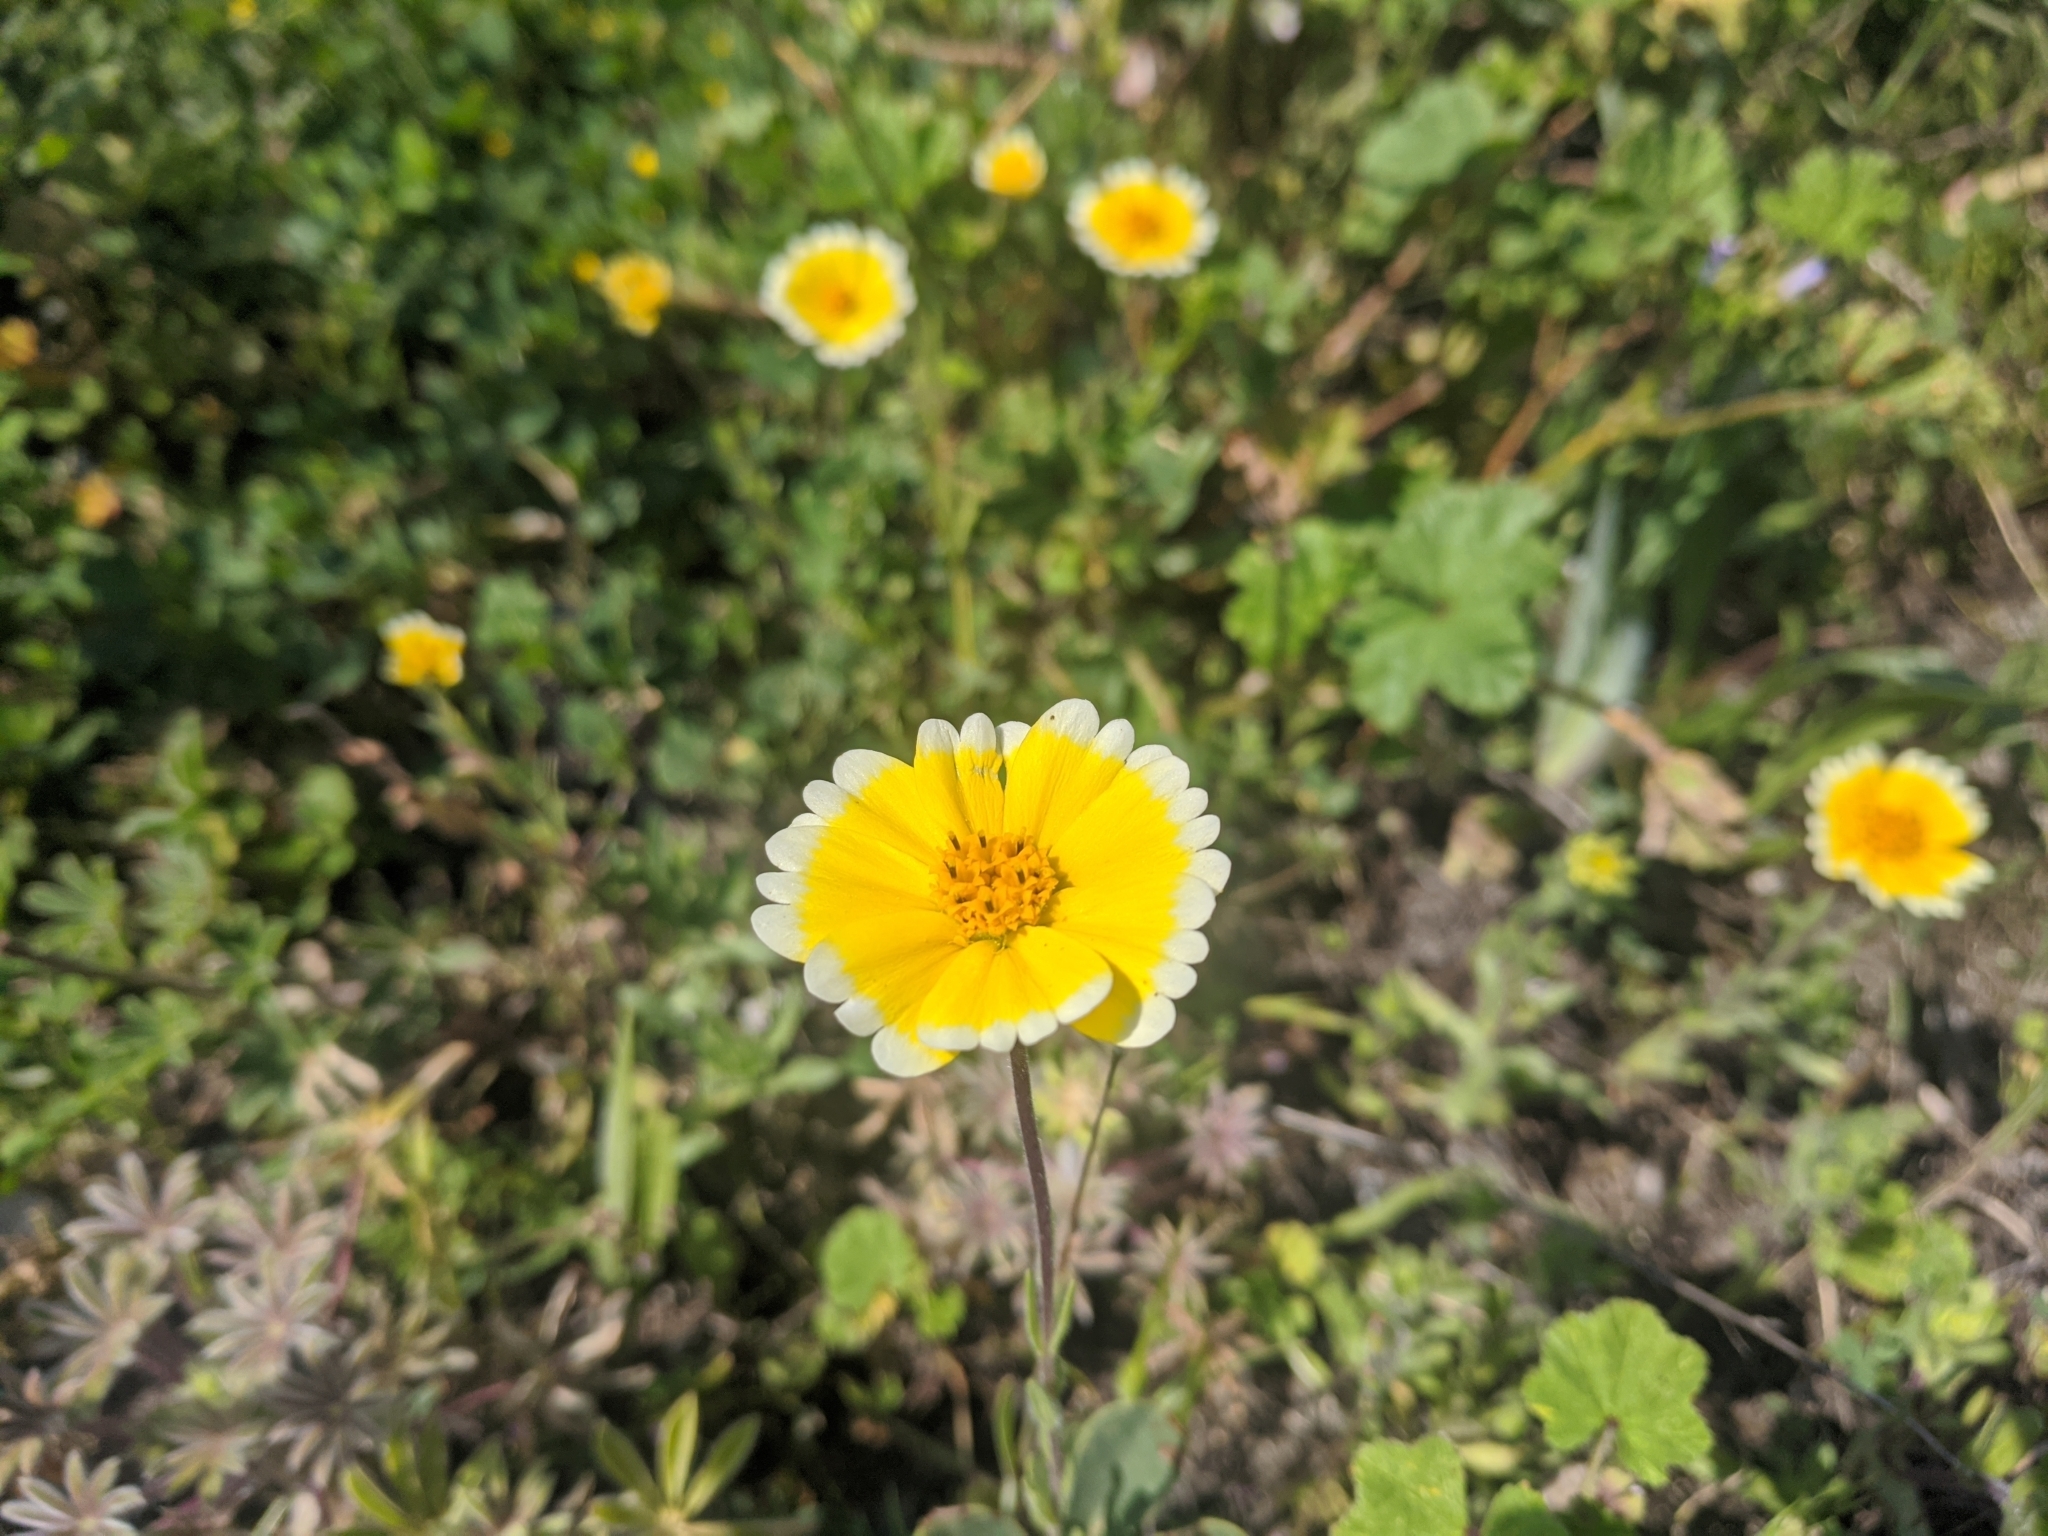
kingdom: Plantae
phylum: Tracheophyta
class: Magnoliopsida
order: Asterales
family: Asteraceae
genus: Layia
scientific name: Layia platyglossa
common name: Tidy-tips
